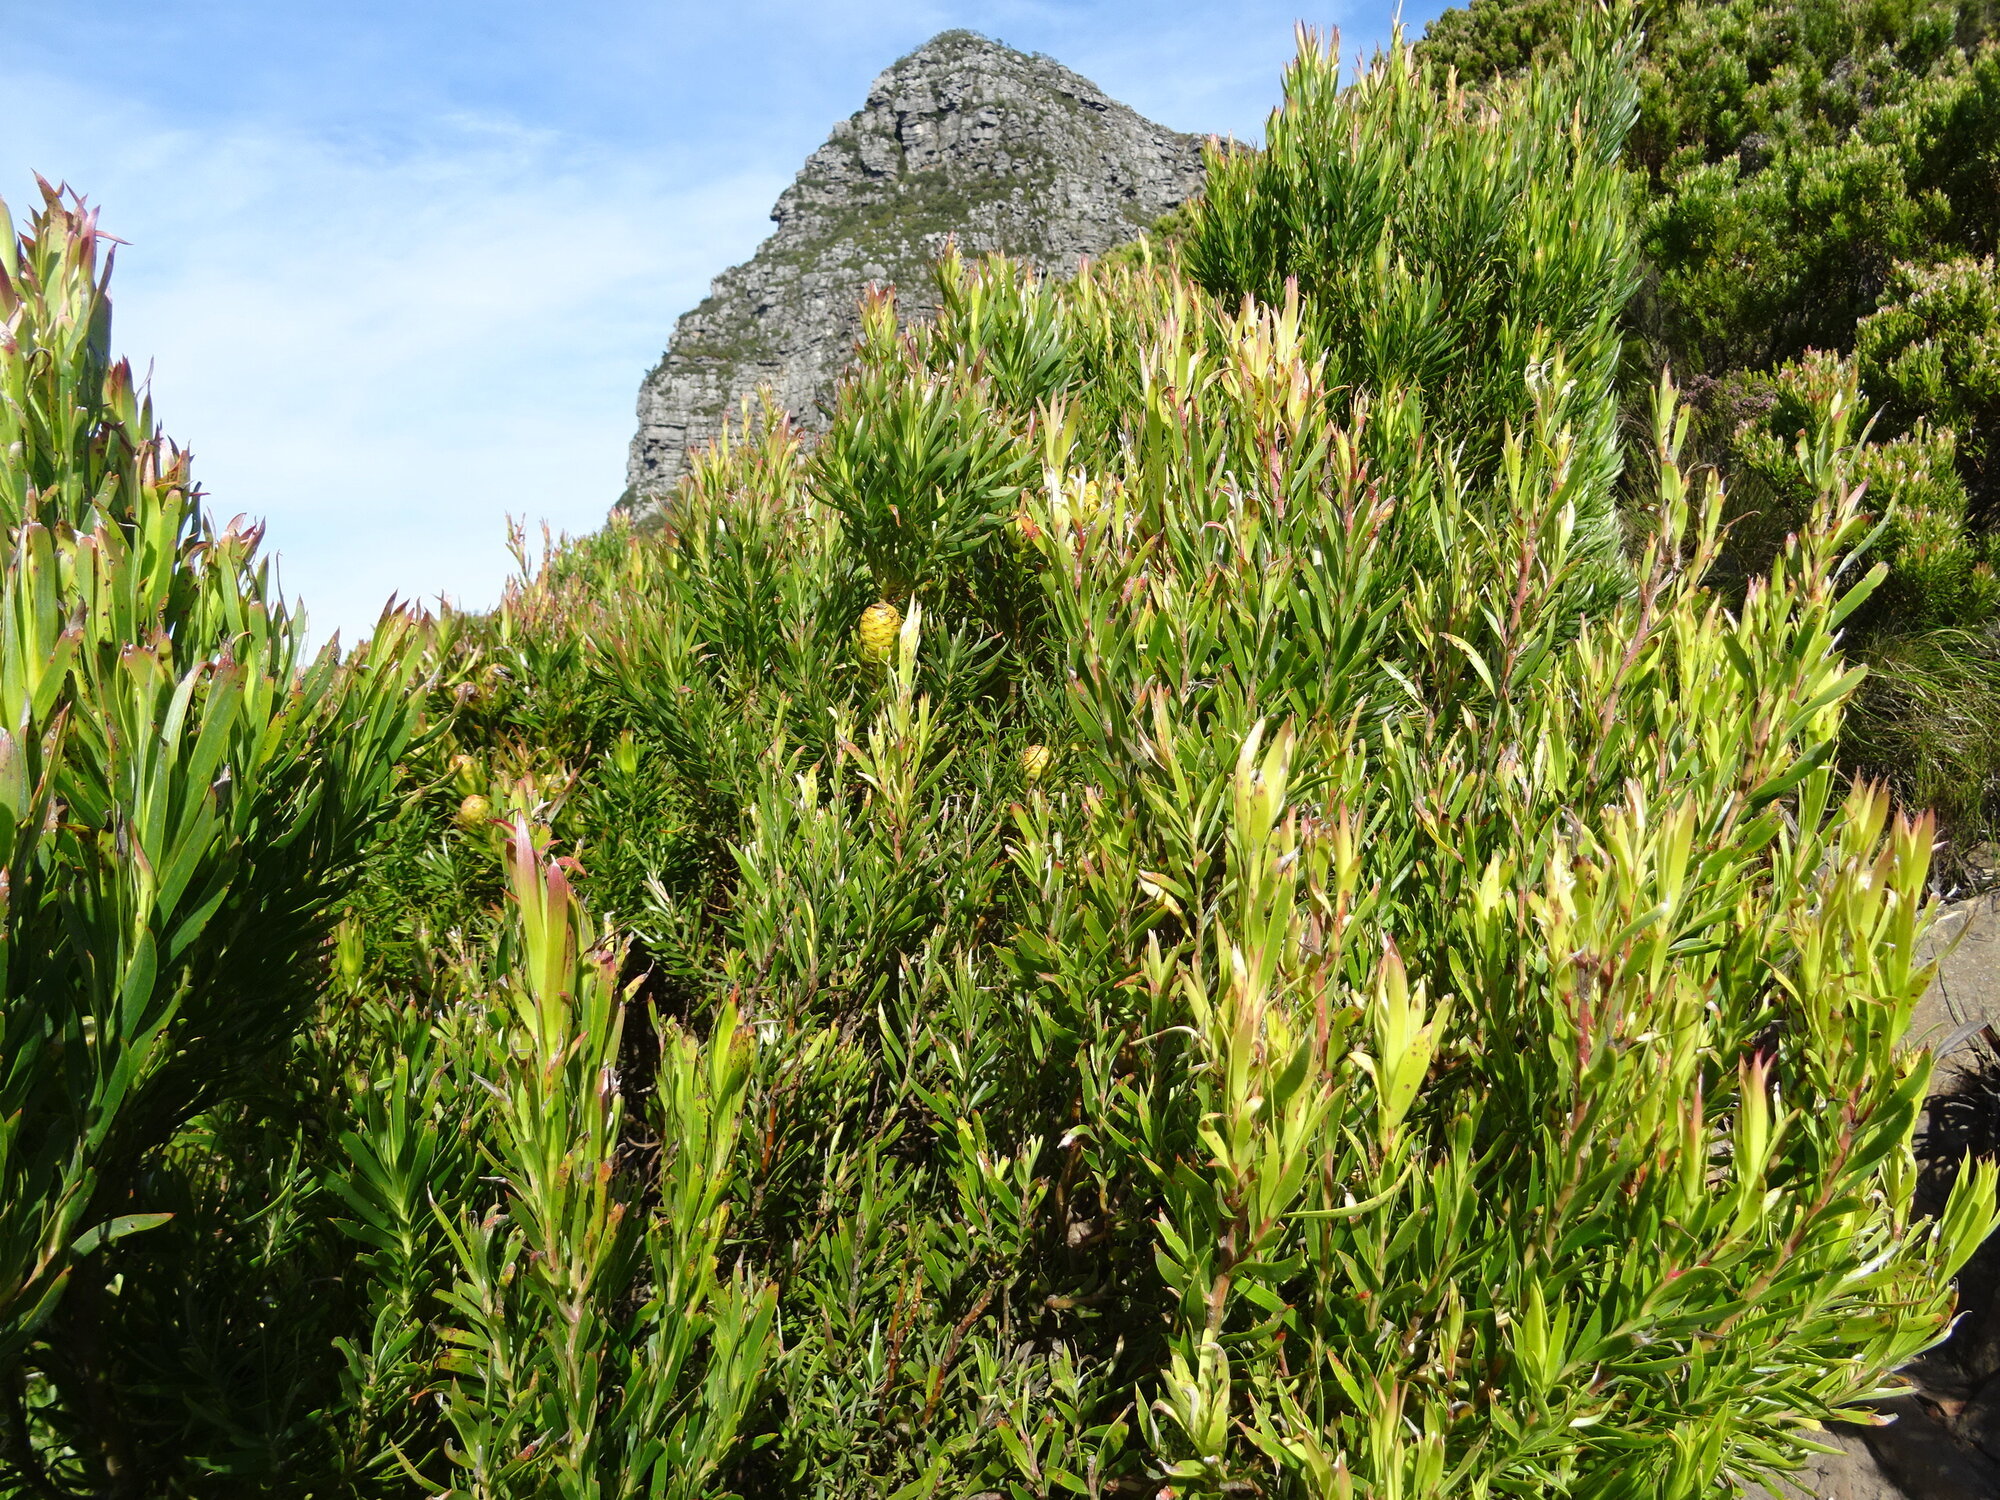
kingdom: Plantae
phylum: Tracheophyta
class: Magnoliopsida
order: Proteales
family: Proteaceae
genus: Leucadendron
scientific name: Leucadendron xanthoconus
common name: Sickle-leaf conebush
